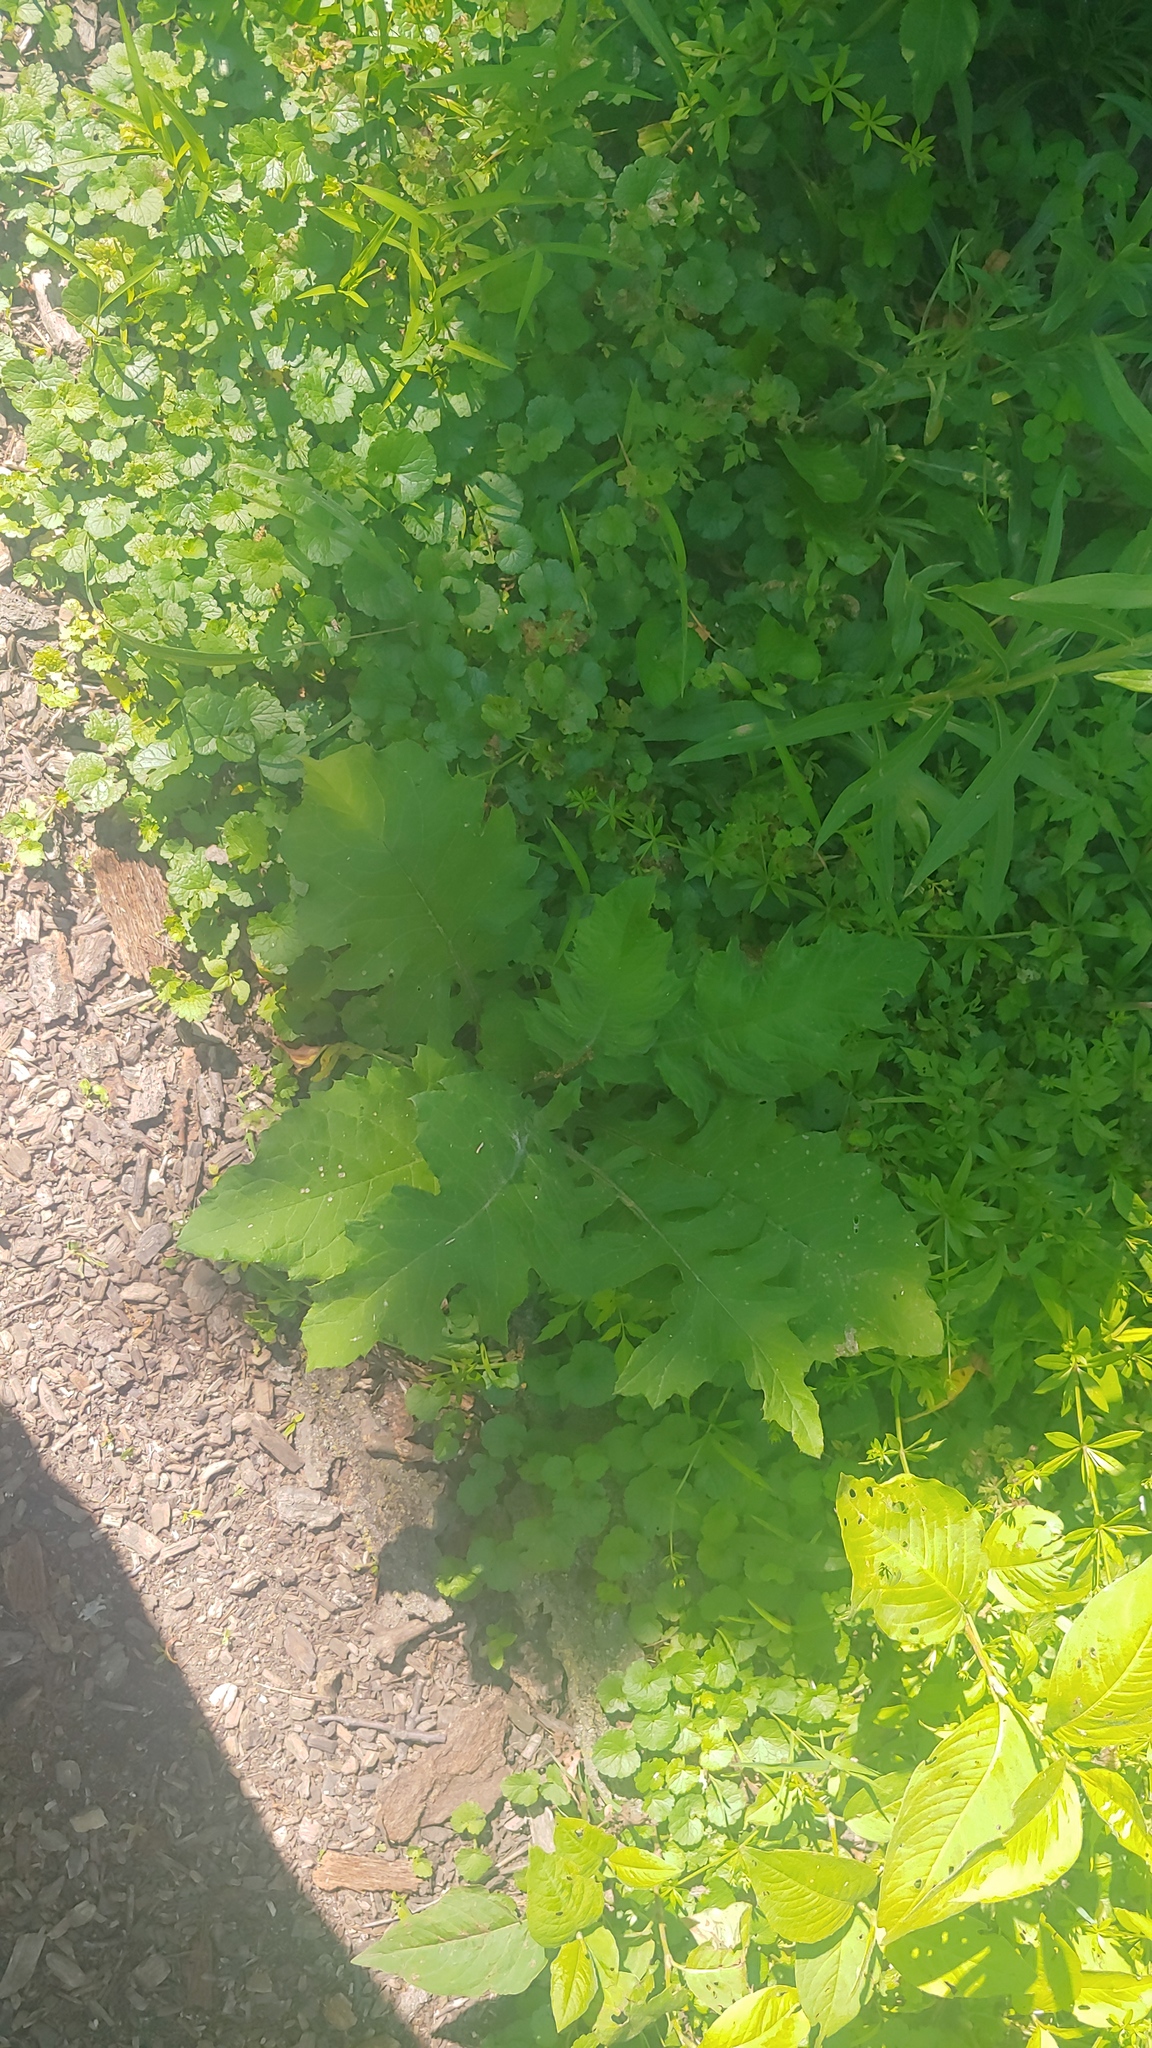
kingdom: Plantae
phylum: Tracheophyta
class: Magnoliopsida
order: Asterales
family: Asteraceae
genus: Polymnia
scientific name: Polymnia canadensis
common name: Pale-flowered leafcup
